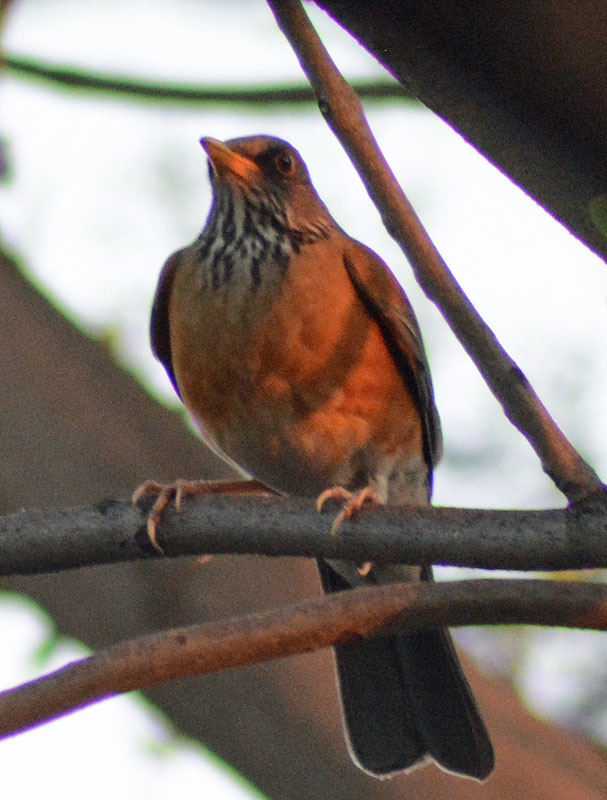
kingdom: Animalia
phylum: Chordata
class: Aves
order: Passeriformes
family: Turdidae
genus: Turdus
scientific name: Turdus rufopalliatus
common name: Rufous-backed robin
